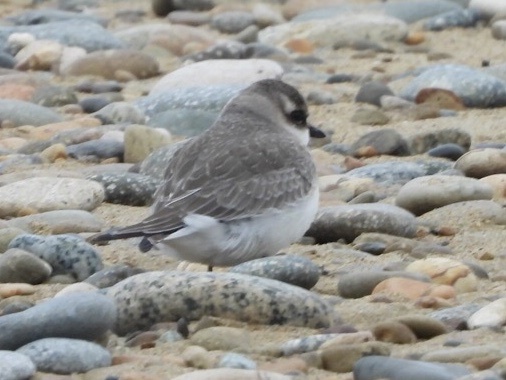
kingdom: Animalia
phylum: Chordata
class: Aves
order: Charadriiformes
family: Charadriidae
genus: Anarhynchus
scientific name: Anarhynchus
